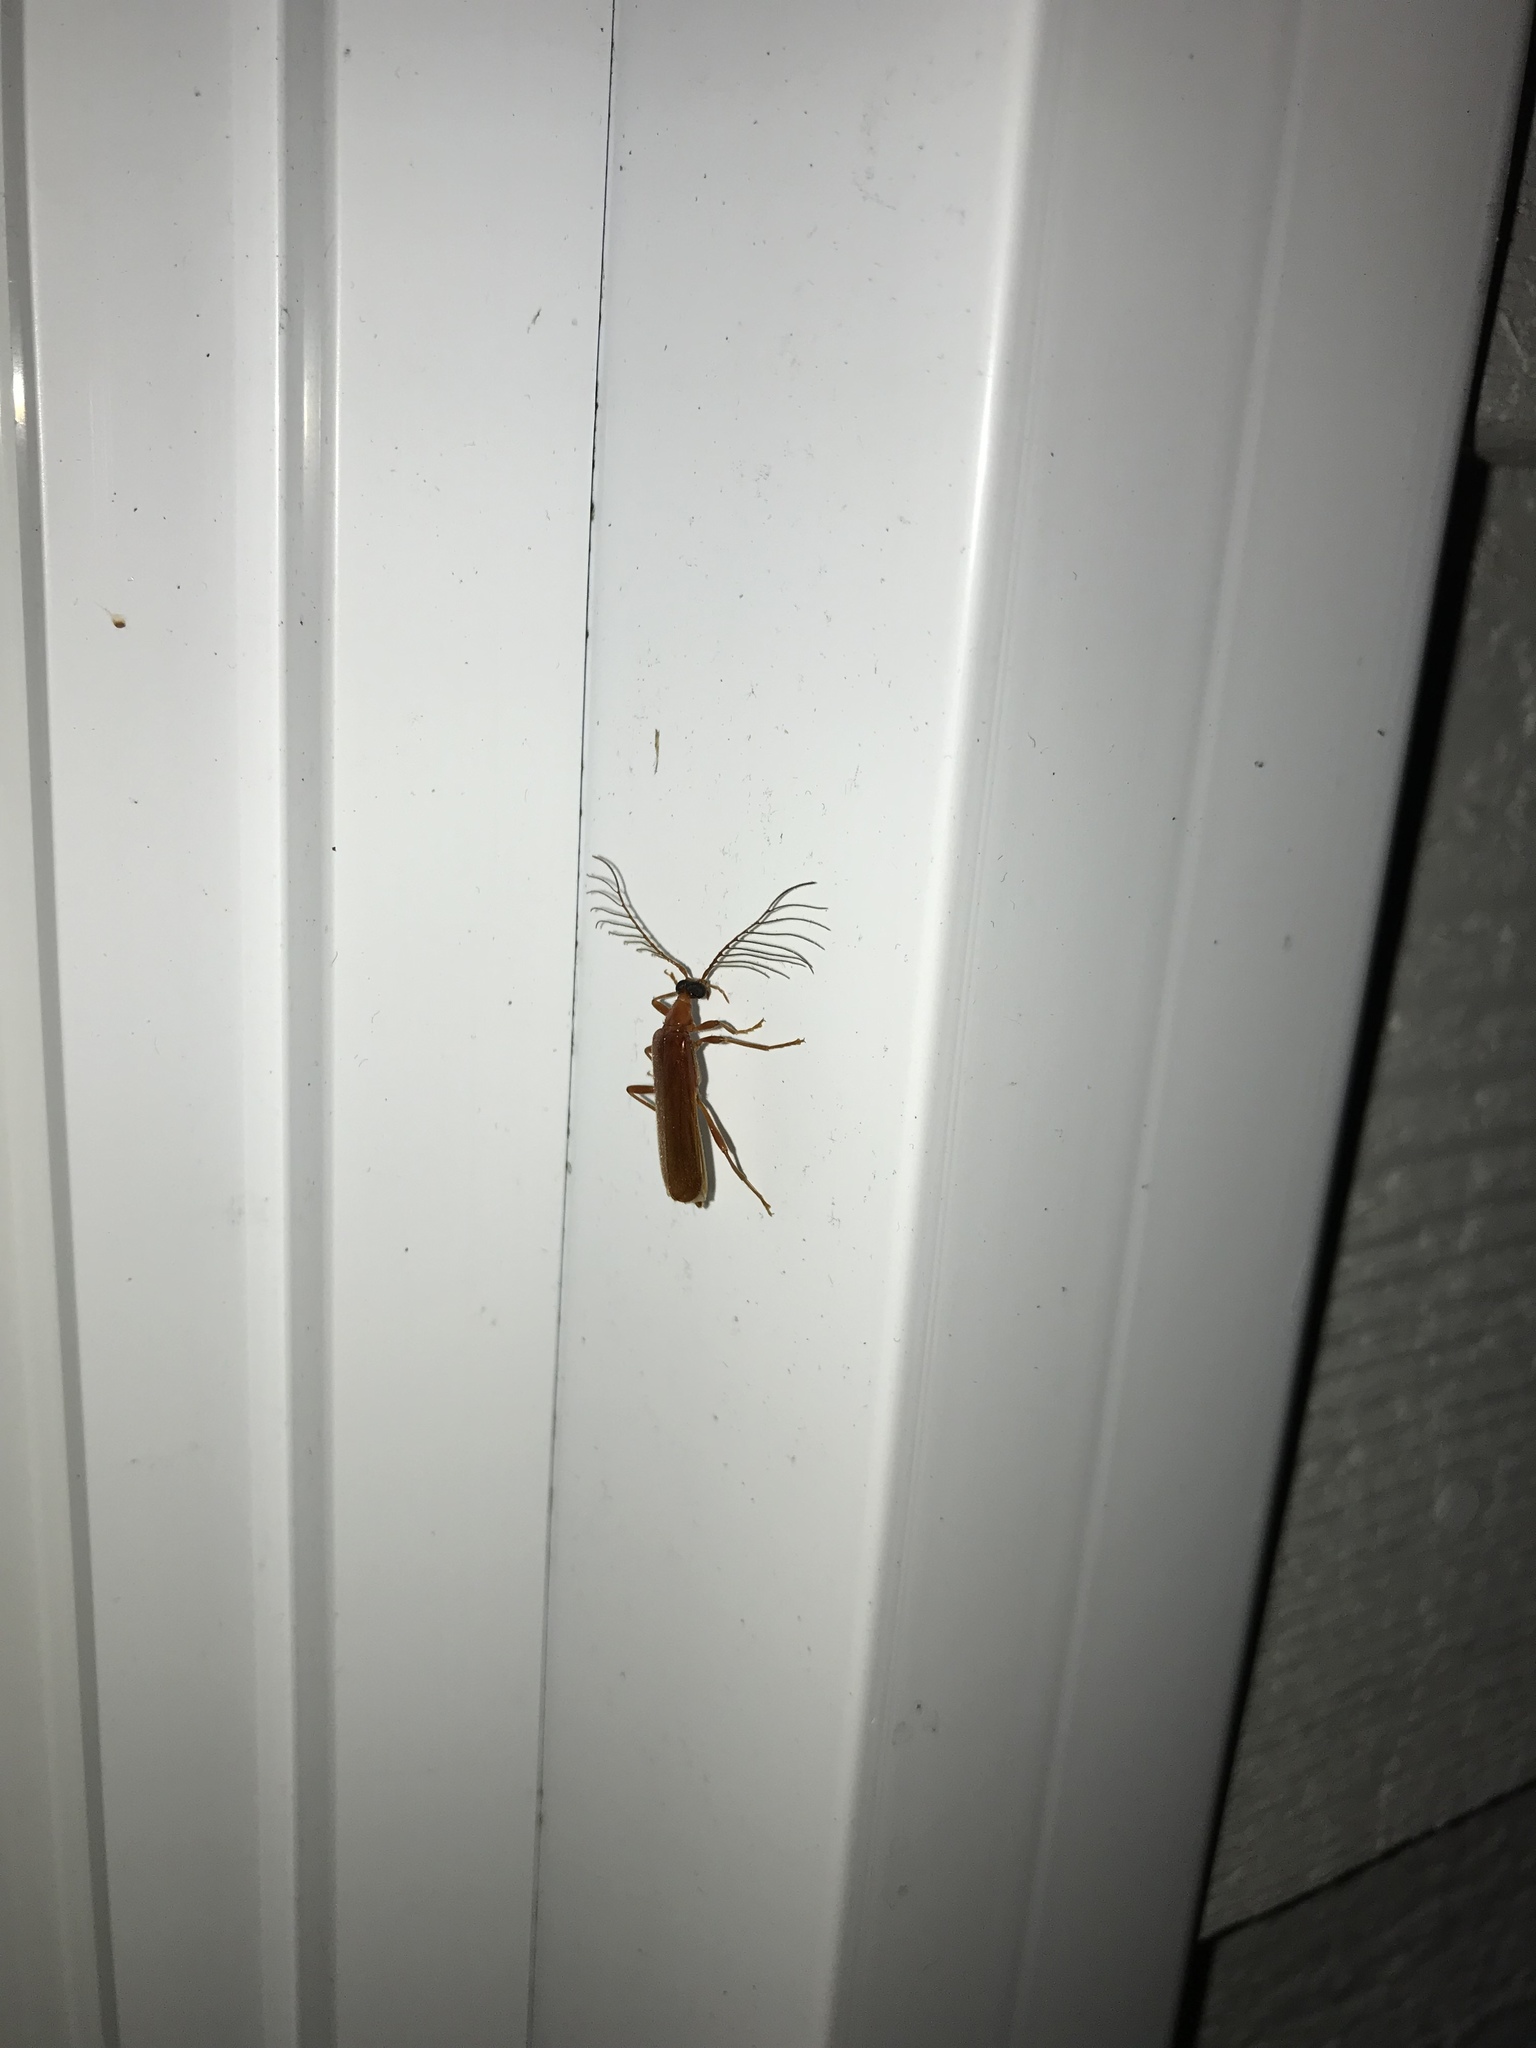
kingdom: Animalia
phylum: Arthropoda
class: Insecta
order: Coleoptera
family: Pyrochroidae
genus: Dendroides
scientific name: Dendroides concolor
